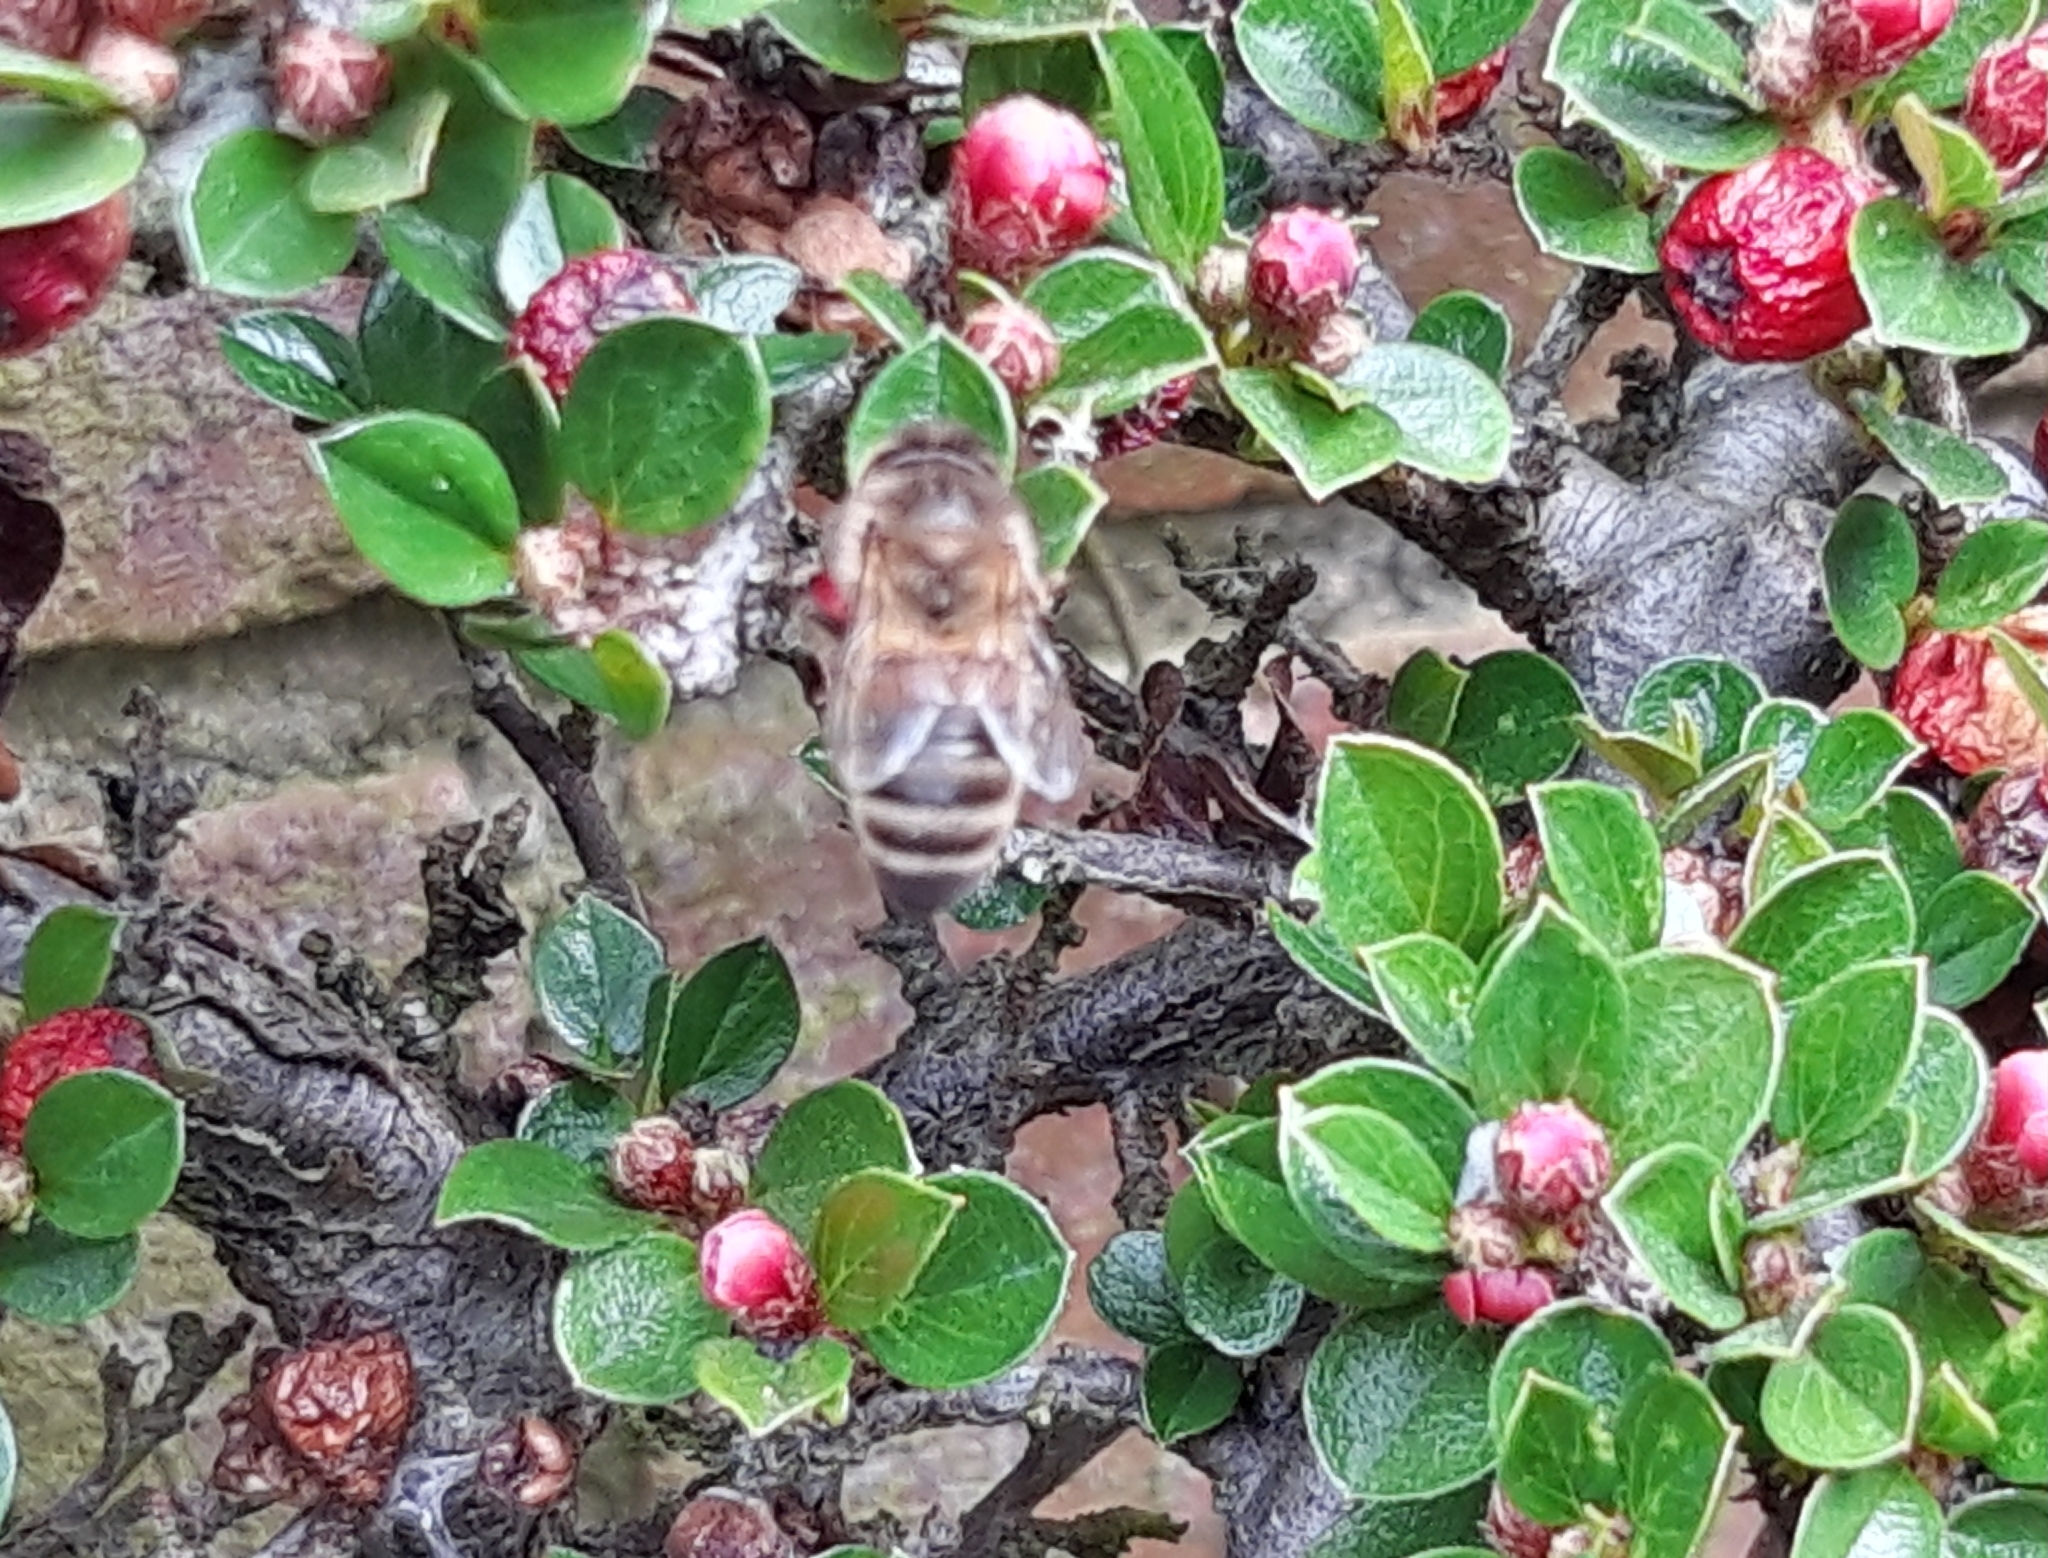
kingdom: Animalia
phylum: Arthropoda
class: Insecta
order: Hymenoptera
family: Apidae
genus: Apis
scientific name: Apis mellifera
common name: Honey bee
